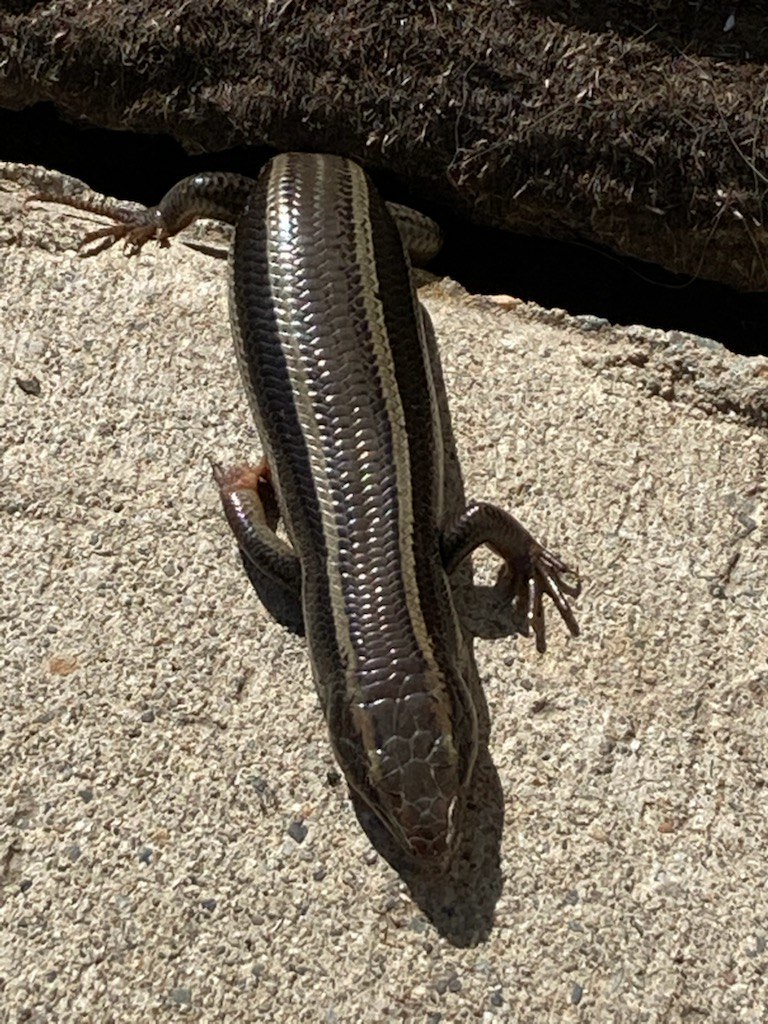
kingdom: Animalia
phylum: Chordata
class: Squamata
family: Scincidae
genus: Plestiodon
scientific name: Plestiodon skiltonianus
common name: Coronado island skink [interparietalis]
